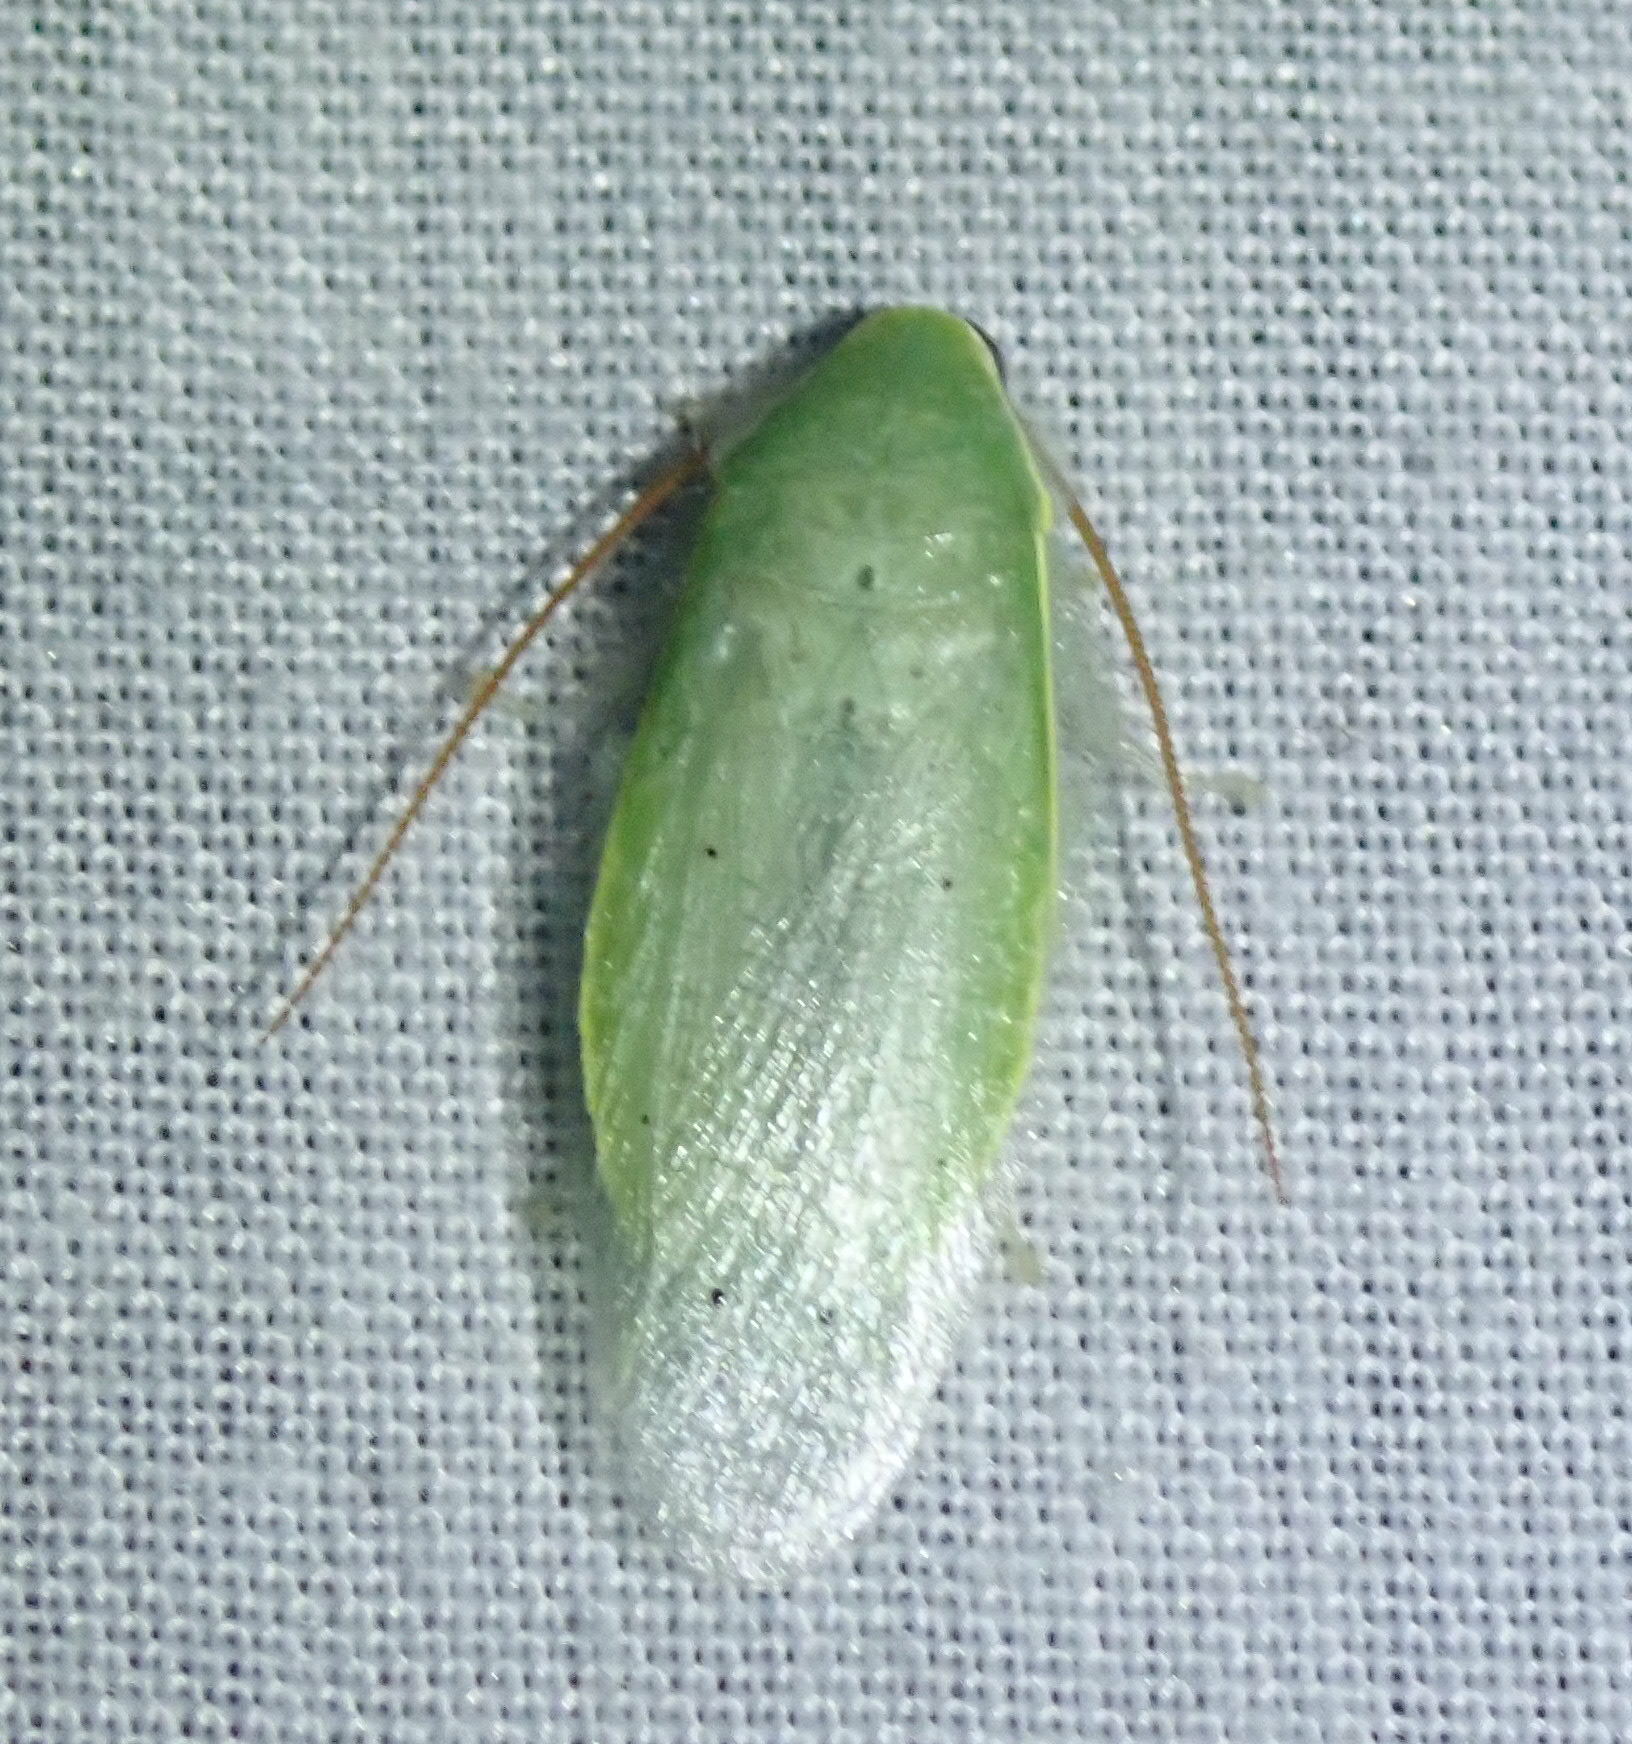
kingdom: Animalia
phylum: Arthropoda
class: Insecta
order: Blattodea
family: Blaberidae
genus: Panchlora
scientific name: Panchlora nivea
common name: Cuban cockroach
